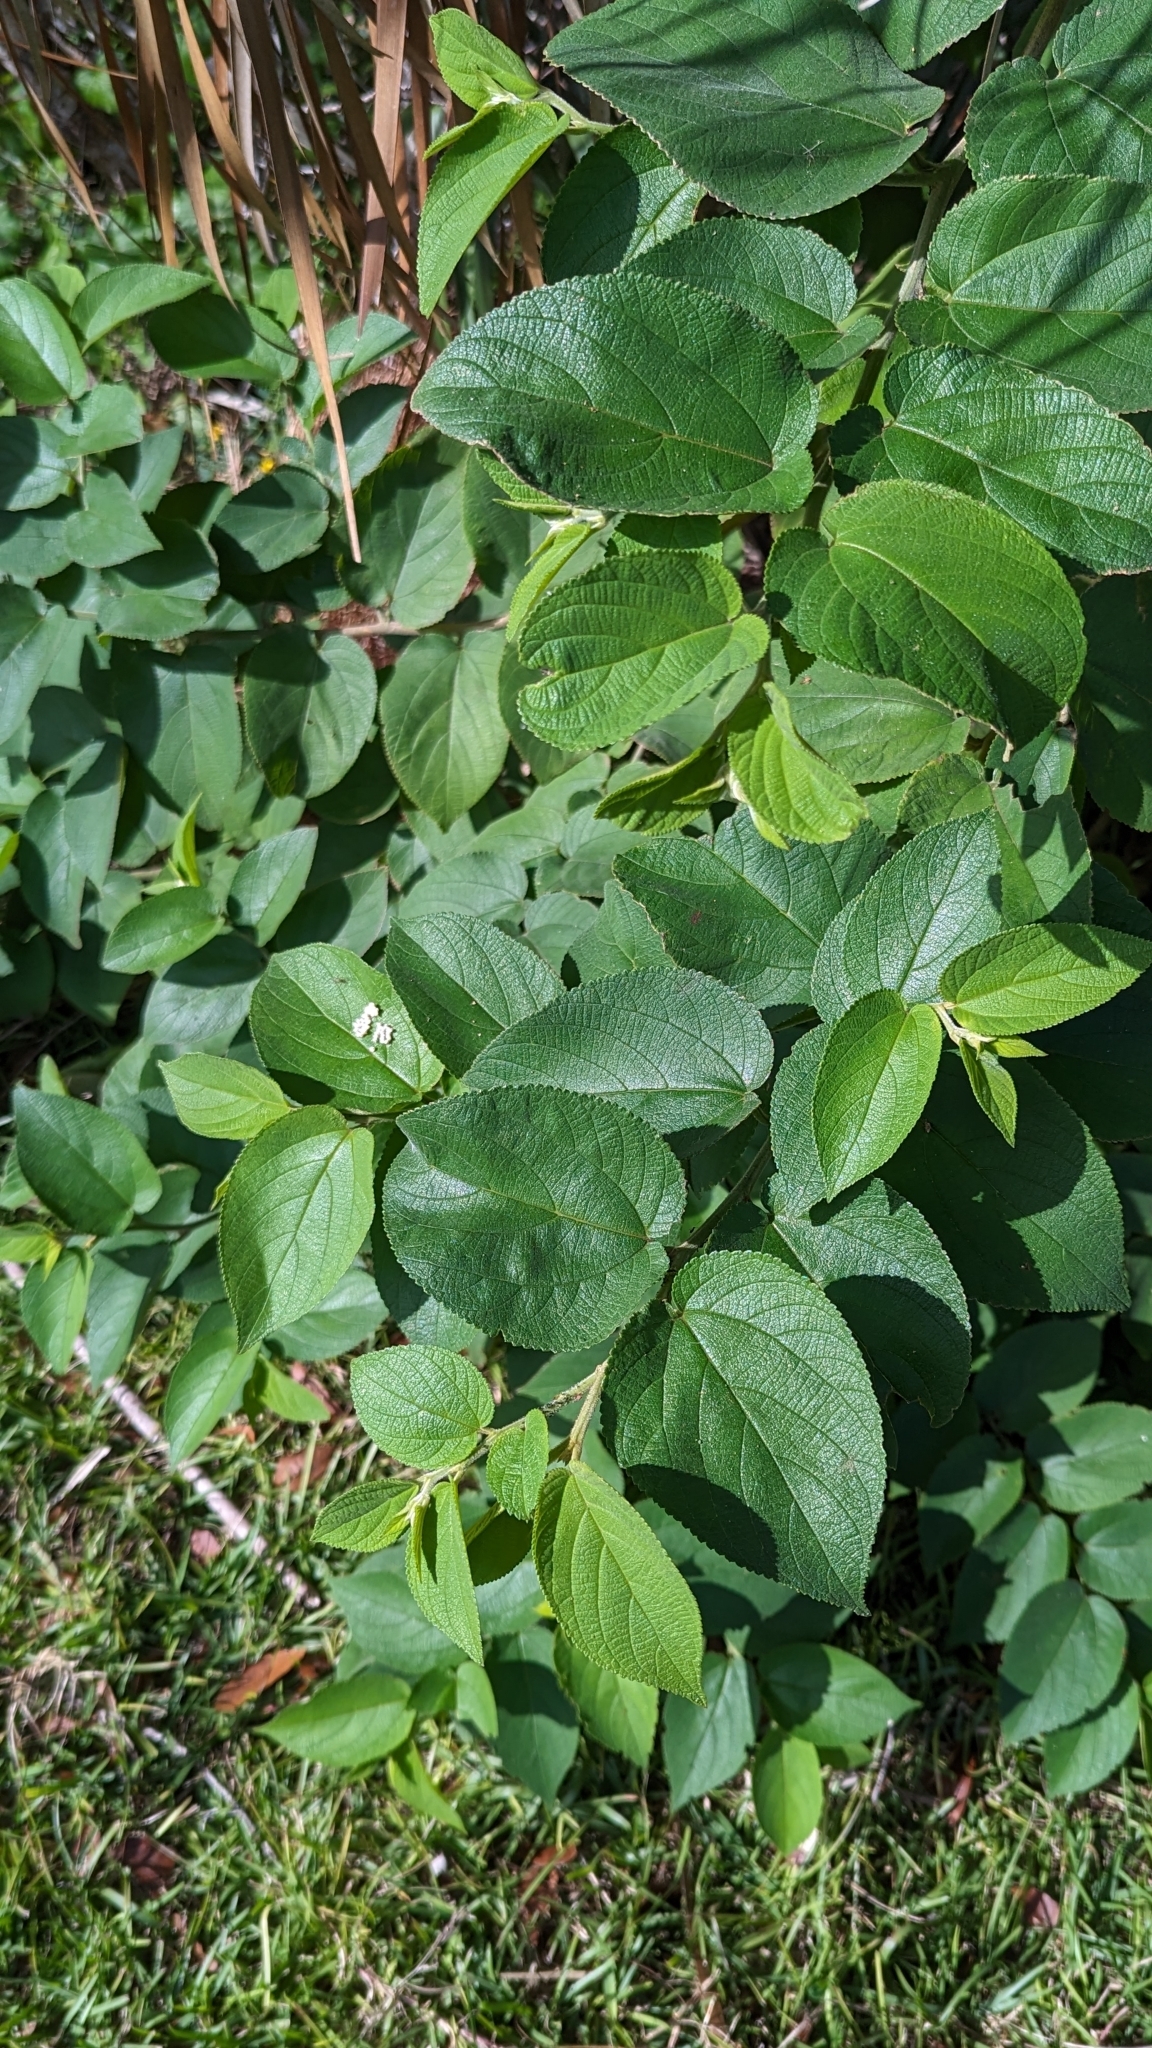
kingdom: Animalia
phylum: Arthropoda
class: Insecta
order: Lepidoptera
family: Saturniidae
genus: Automeris
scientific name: Automeris io
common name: Io moth
